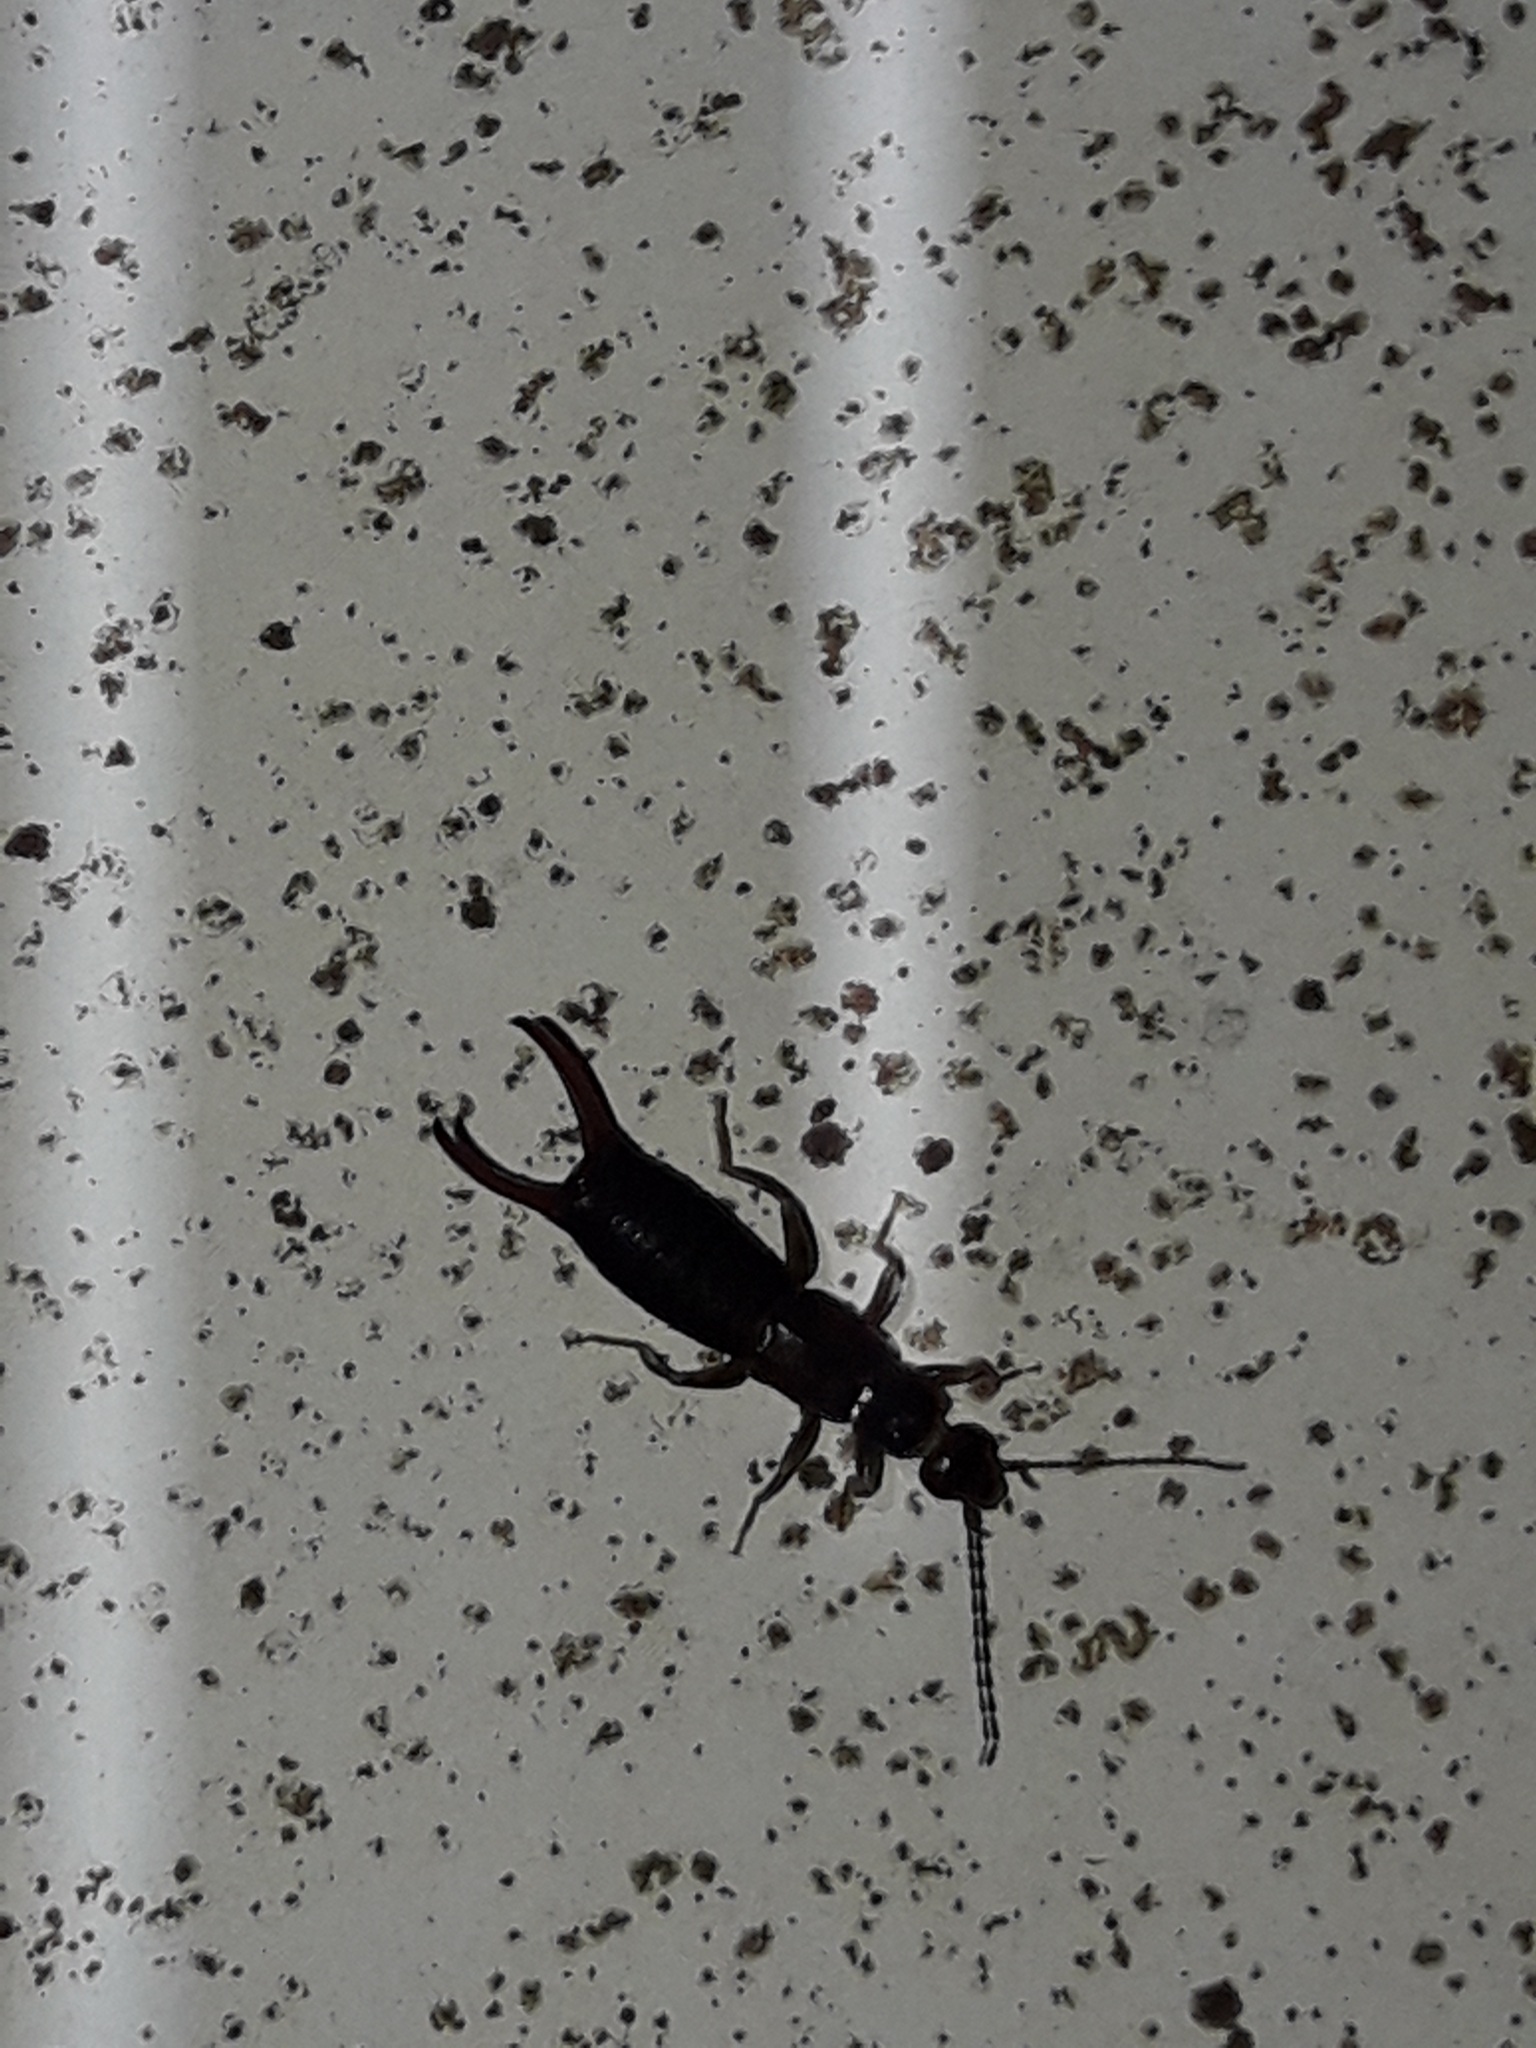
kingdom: Animalia
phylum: Arthropoda
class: Insecta
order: Dermaptera
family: Spongiphoridae
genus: Nesogaster
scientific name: Nesogaster halli
